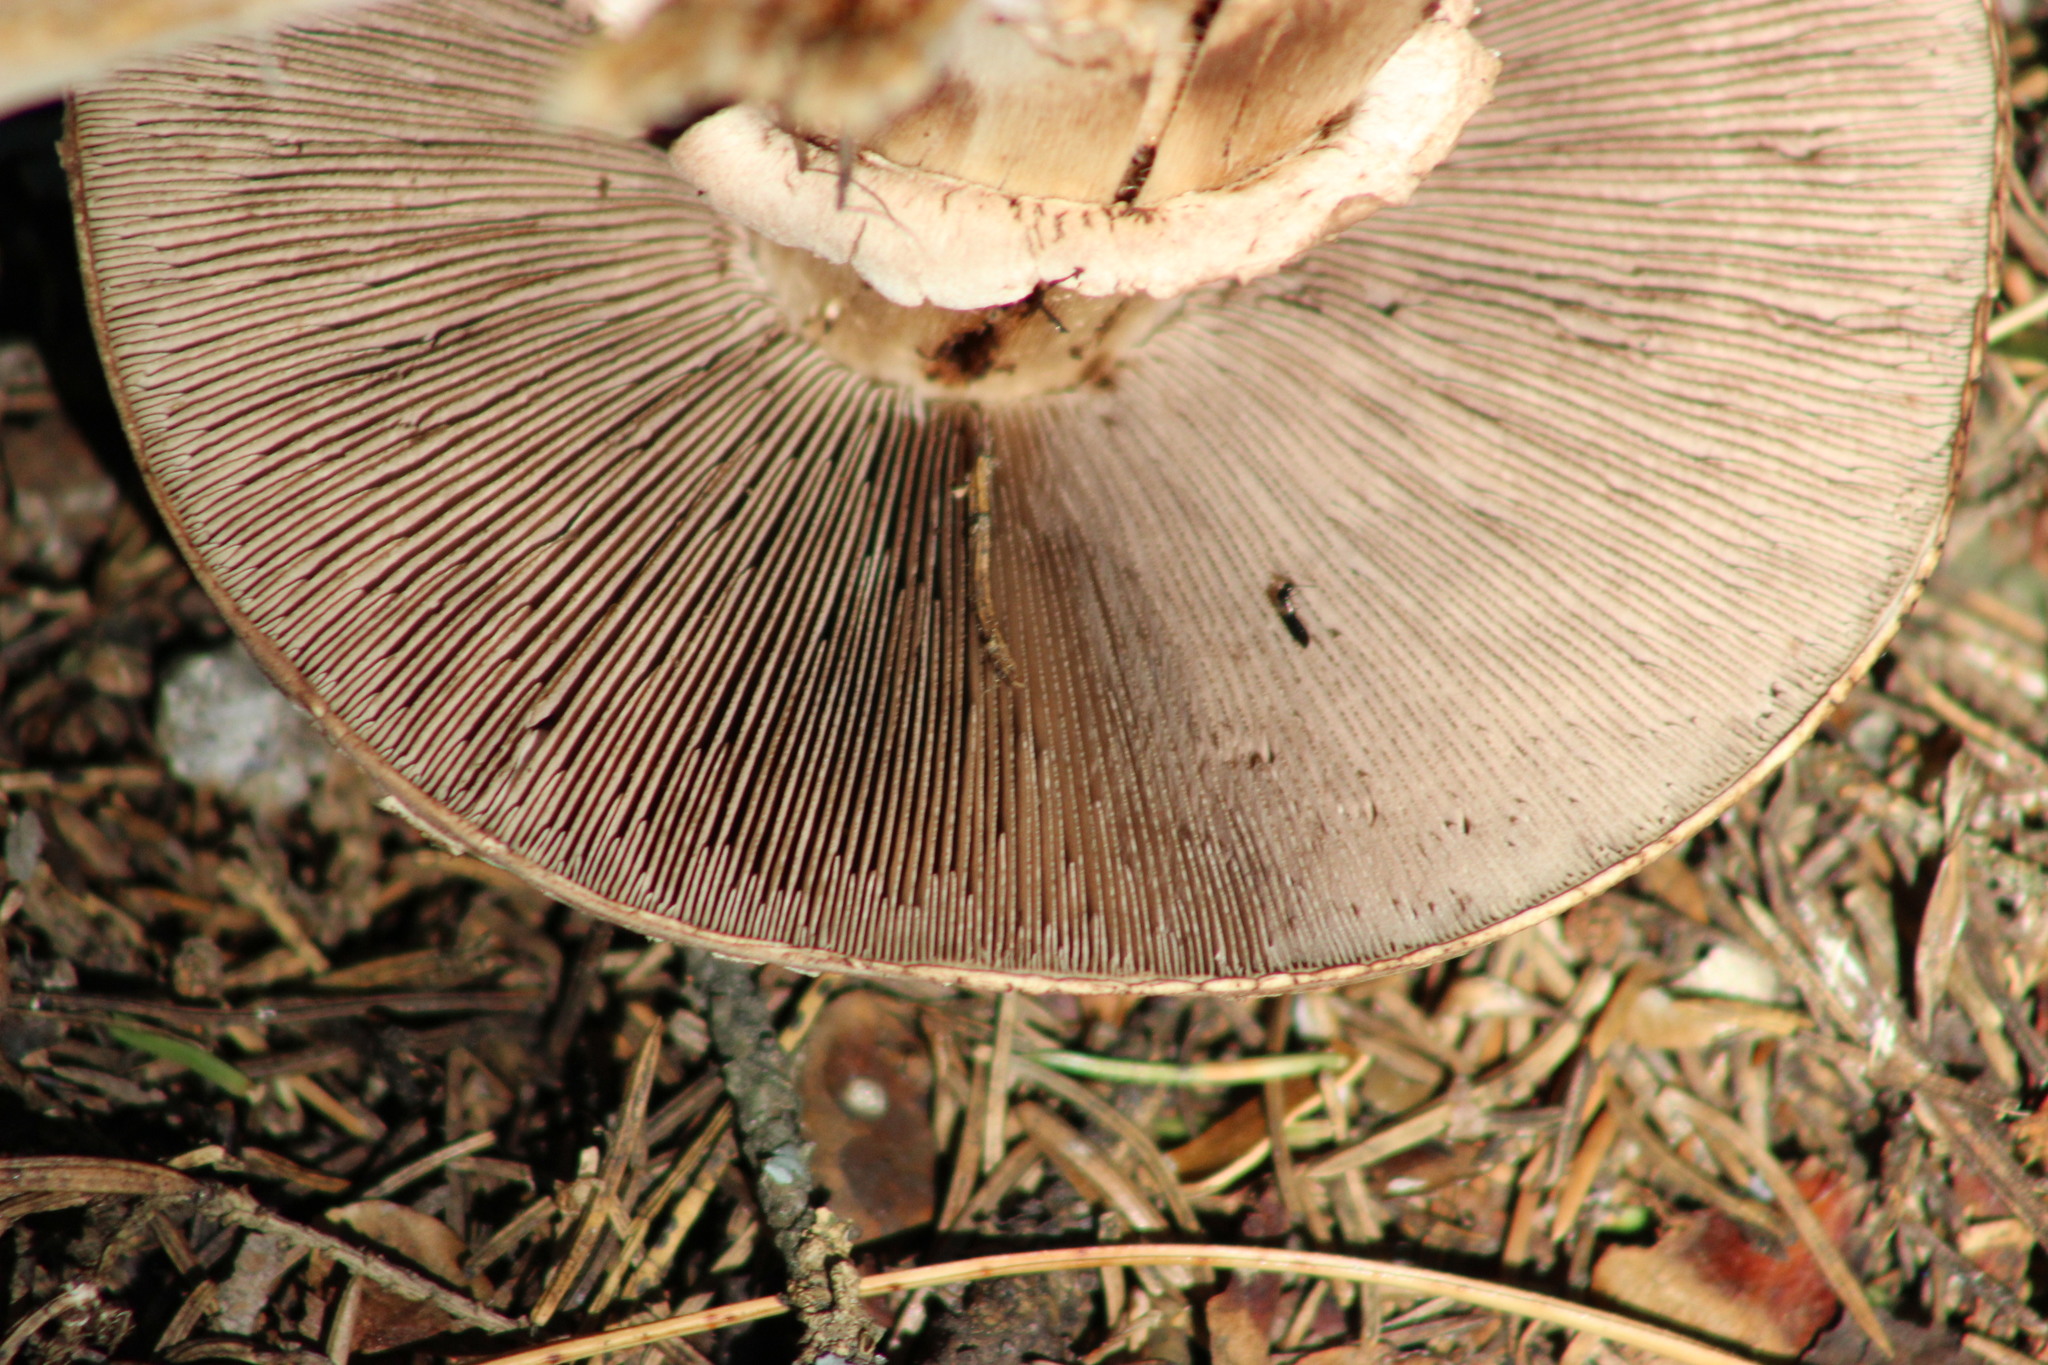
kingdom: Fungi
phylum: Basidiomycota
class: Agaricomycetes
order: Agaricales
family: Agaricaceae
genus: Agaricus
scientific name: Agaricus sylvaticus
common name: Blushing wood mushroom
